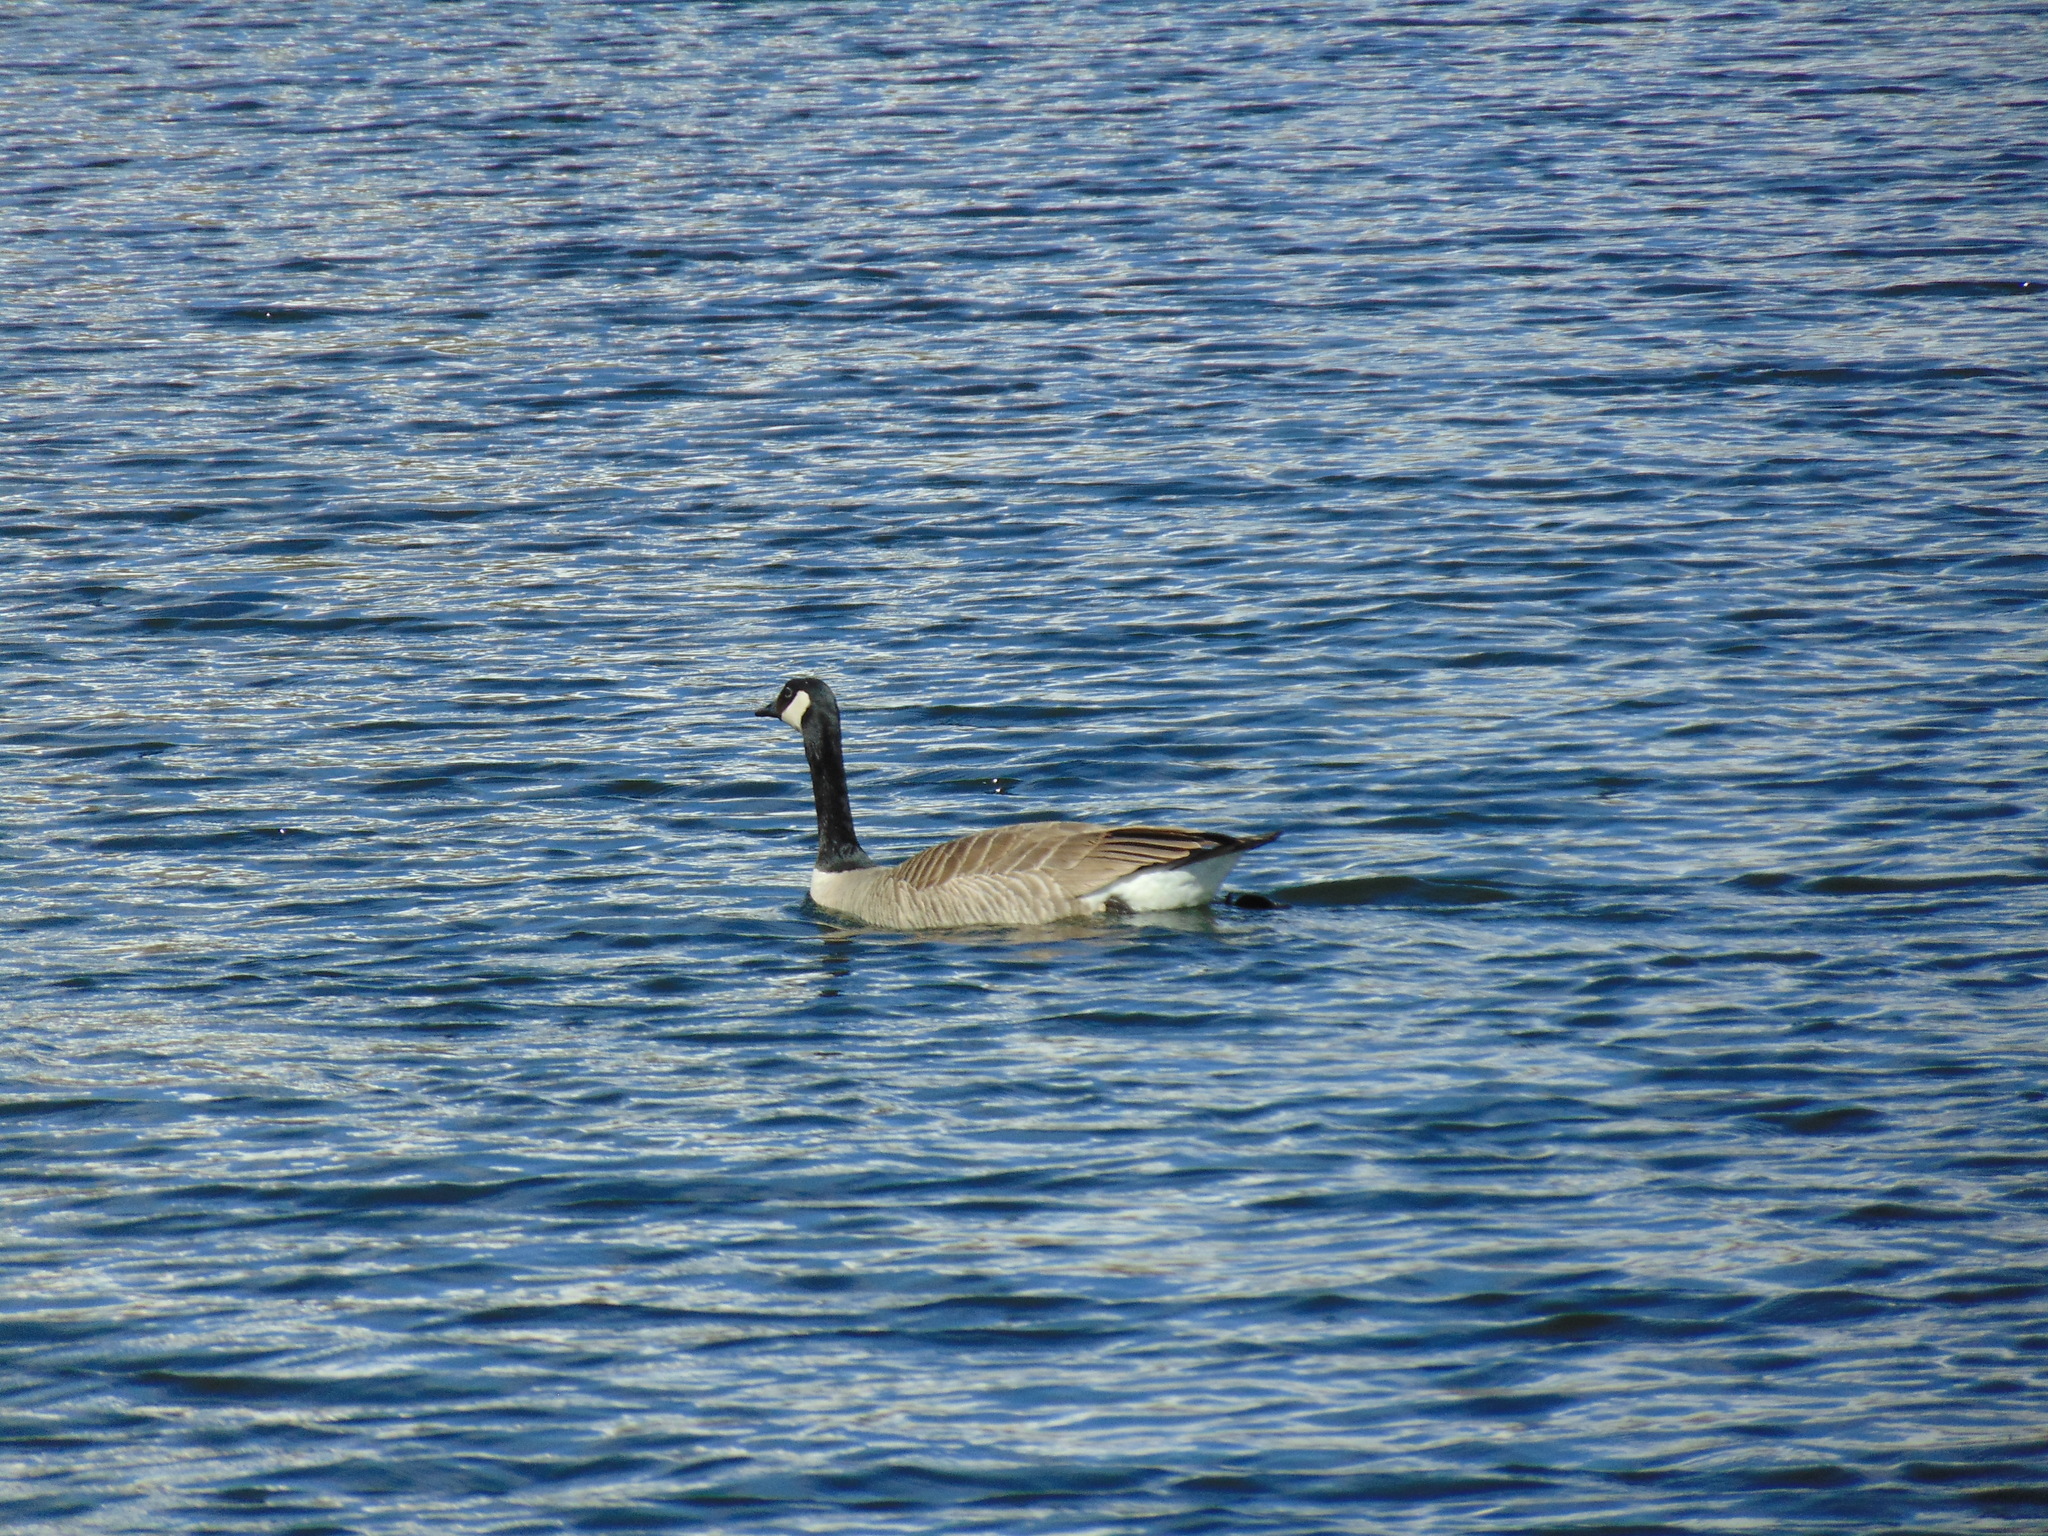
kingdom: Animalia
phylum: Chordata
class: Aves
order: Anseriformes
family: Anatidae
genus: Branta
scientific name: Branta canadensis
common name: Canada goose
